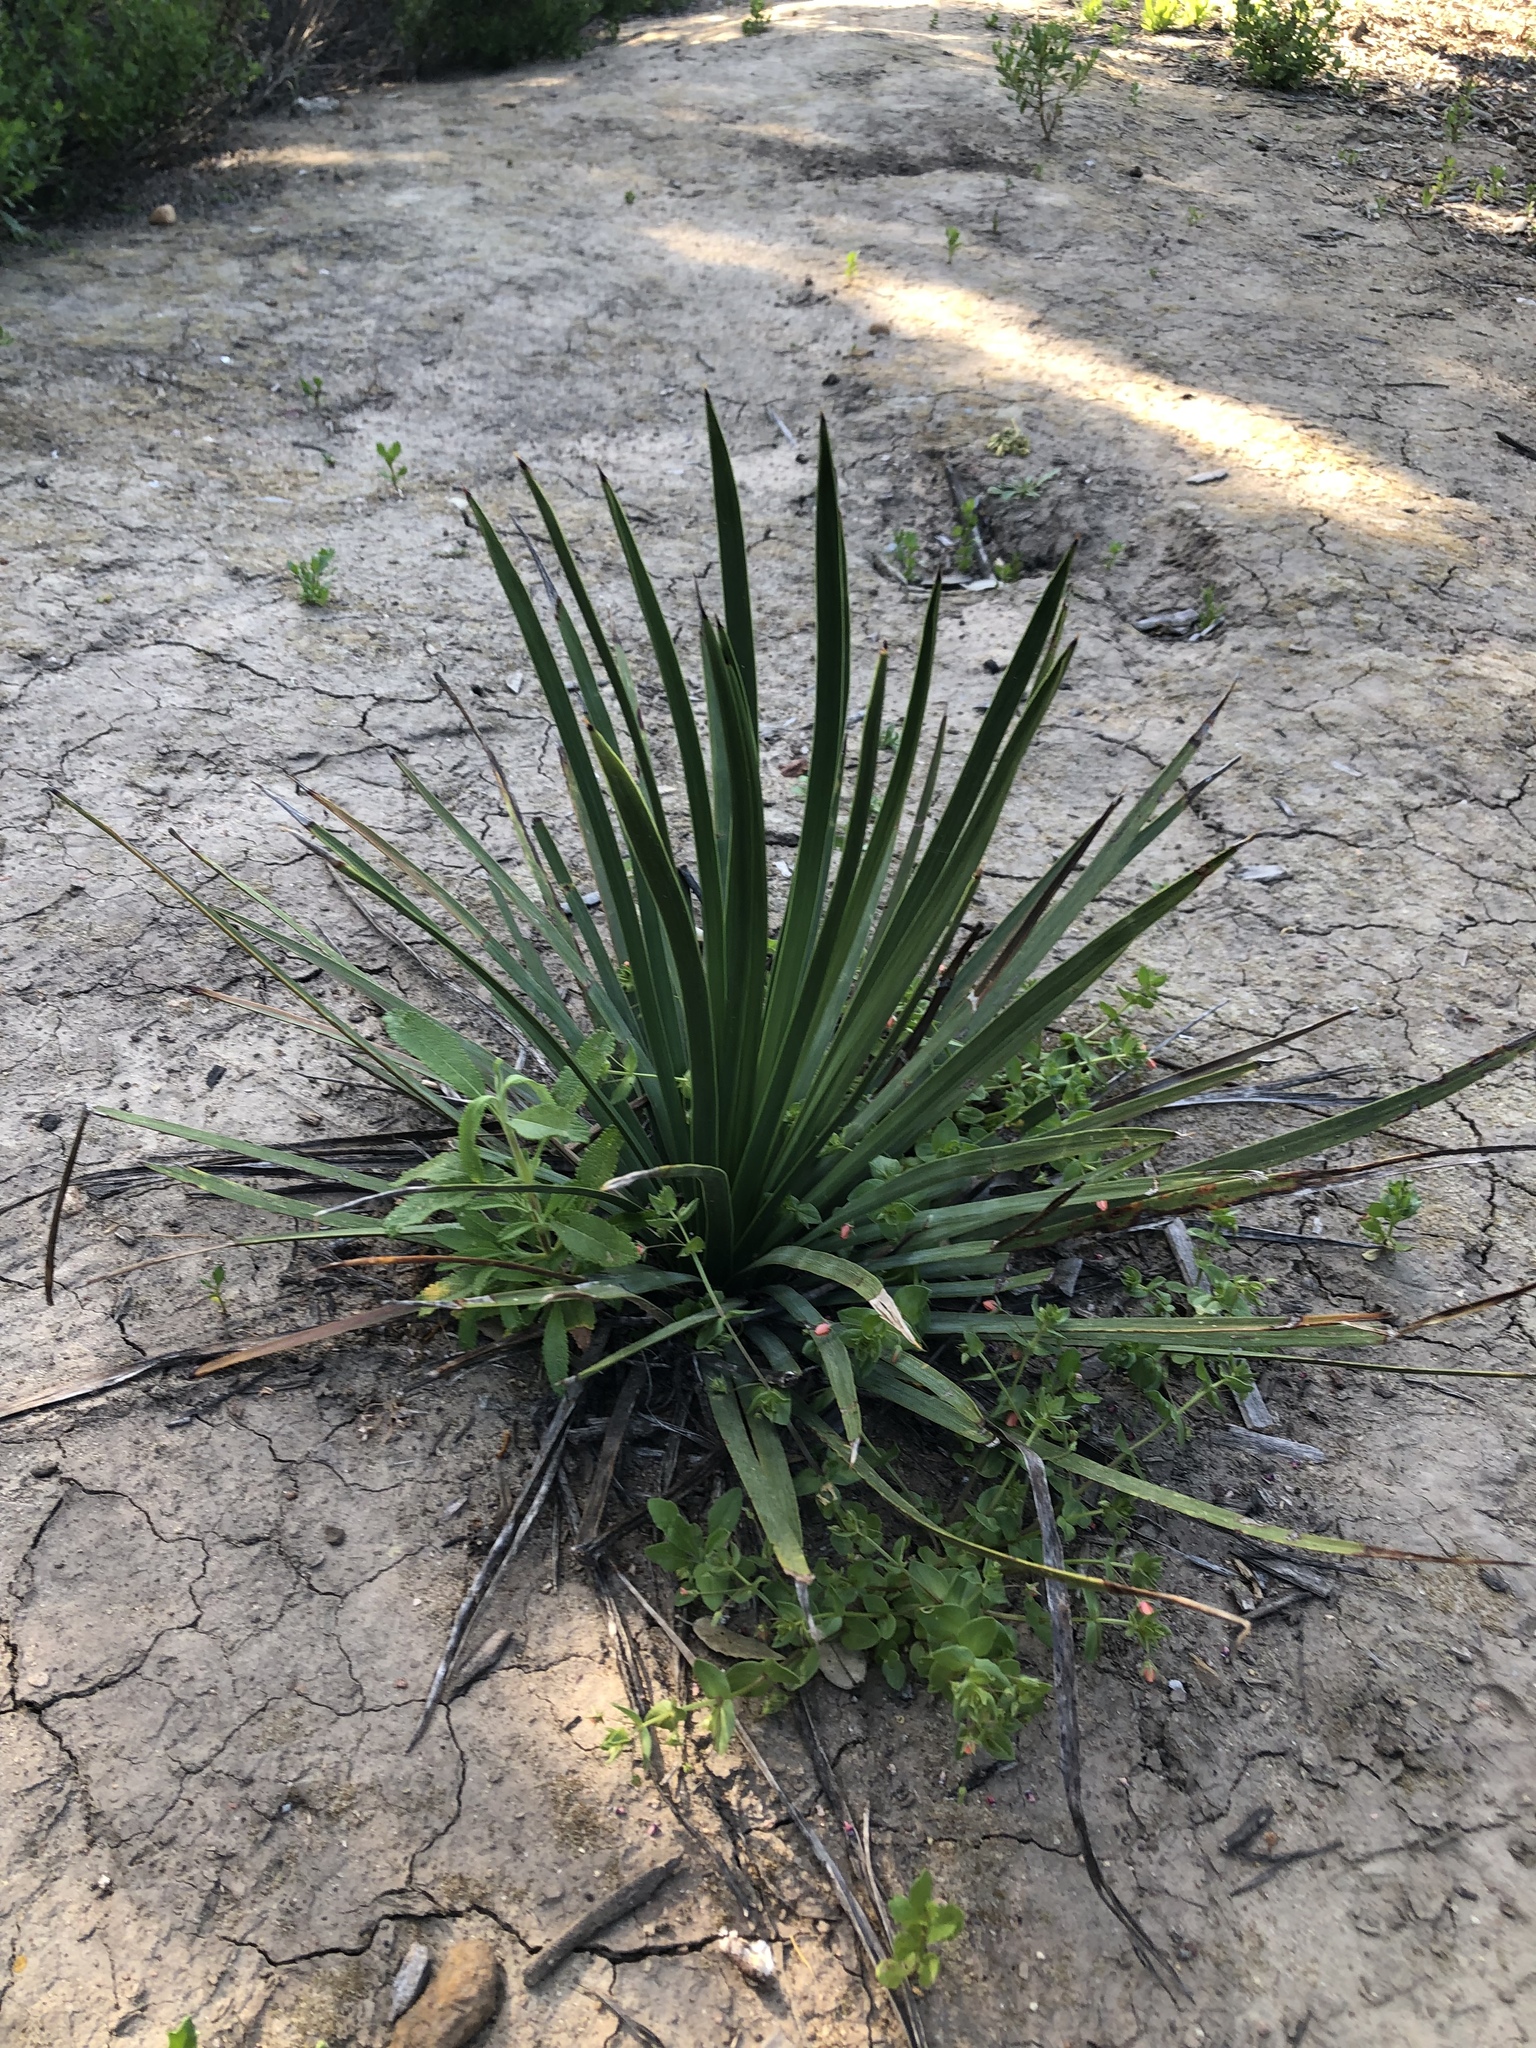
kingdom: Plantae
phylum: Tracheophyta
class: Liliopsida
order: Asparagales
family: Asparagaceae
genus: Hesperoyucca
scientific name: Hesperoyucca whipplei
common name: Our lord's-candle
